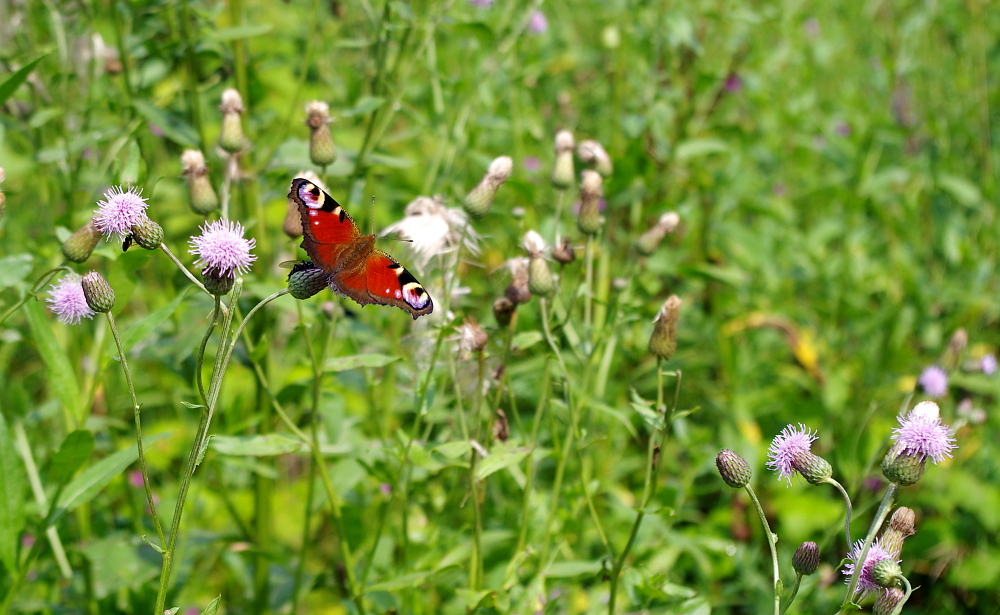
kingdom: Animalia
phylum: Arthropoda
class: Insecta
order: Lepidoptera
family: Nymphalidae
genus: Aglais
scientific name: Aglais io
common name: Peacock
